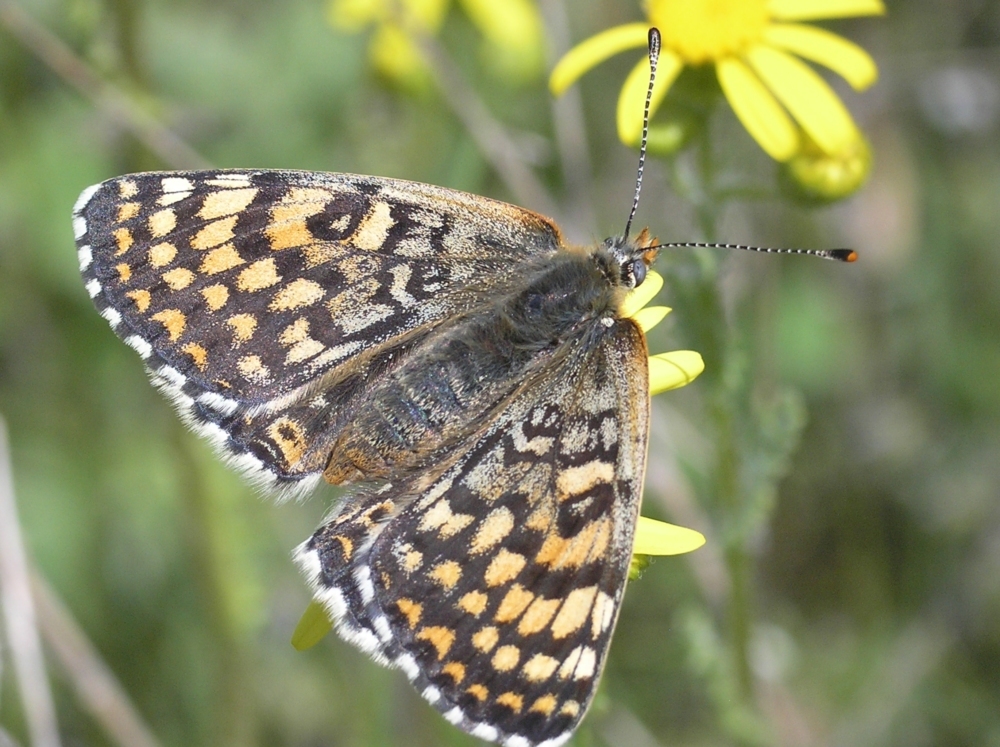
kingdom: Animalia
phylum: Arthropoda
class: Insecta
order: Lepidoptera
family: Nymphalidae
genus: Melitaea
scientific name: Melitaea cinxia
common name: Glanville fritillary
